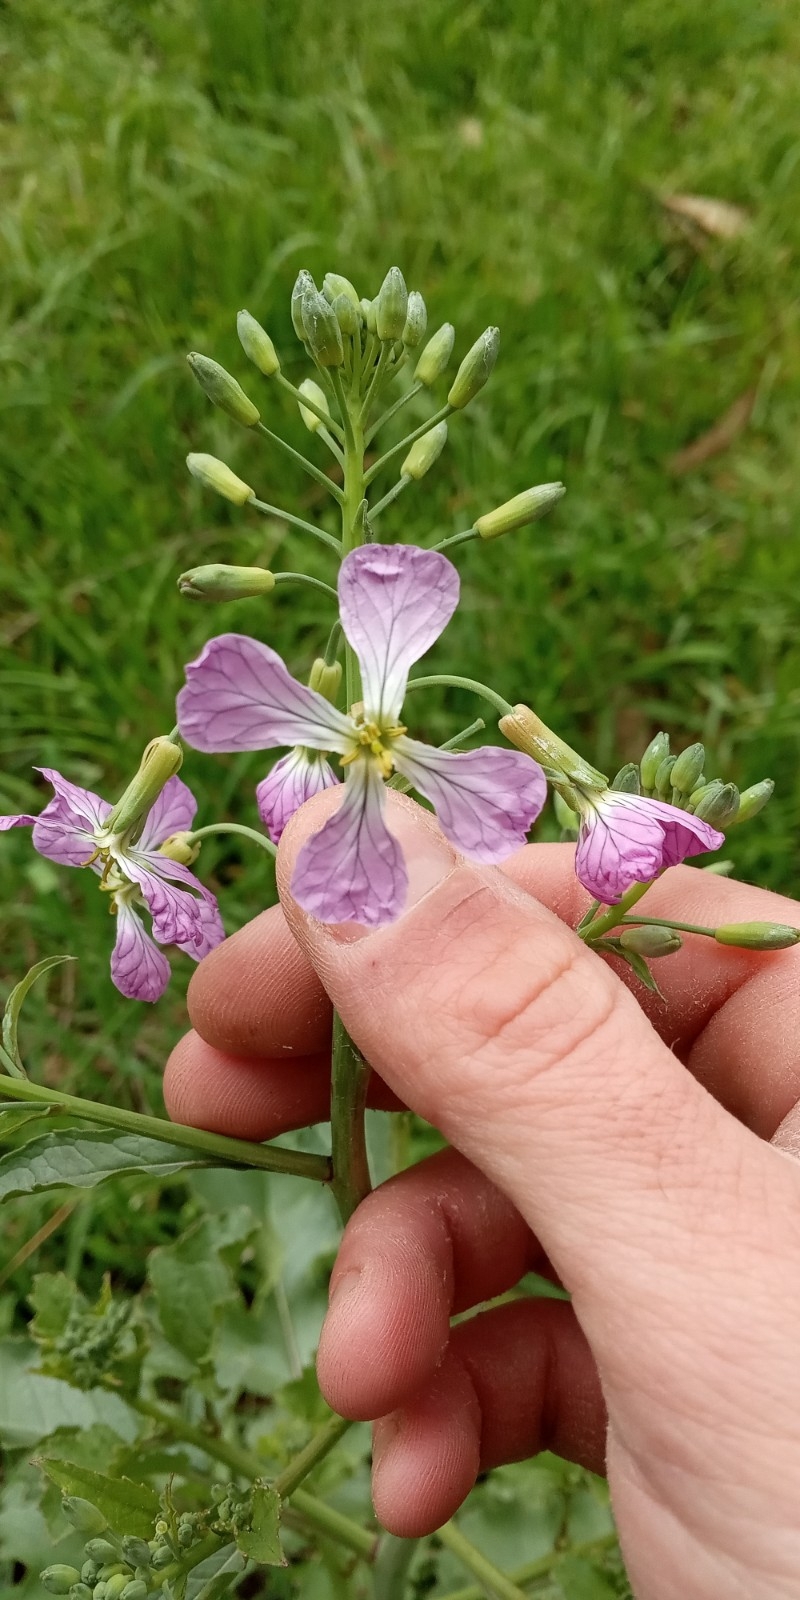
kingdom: Plantae
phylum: Tracheophyta
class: Magnoliopsida
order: Brassicales
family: Brassicaceae
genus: Raphanus
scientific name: Raphanus sativus
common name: Cultivated radish
